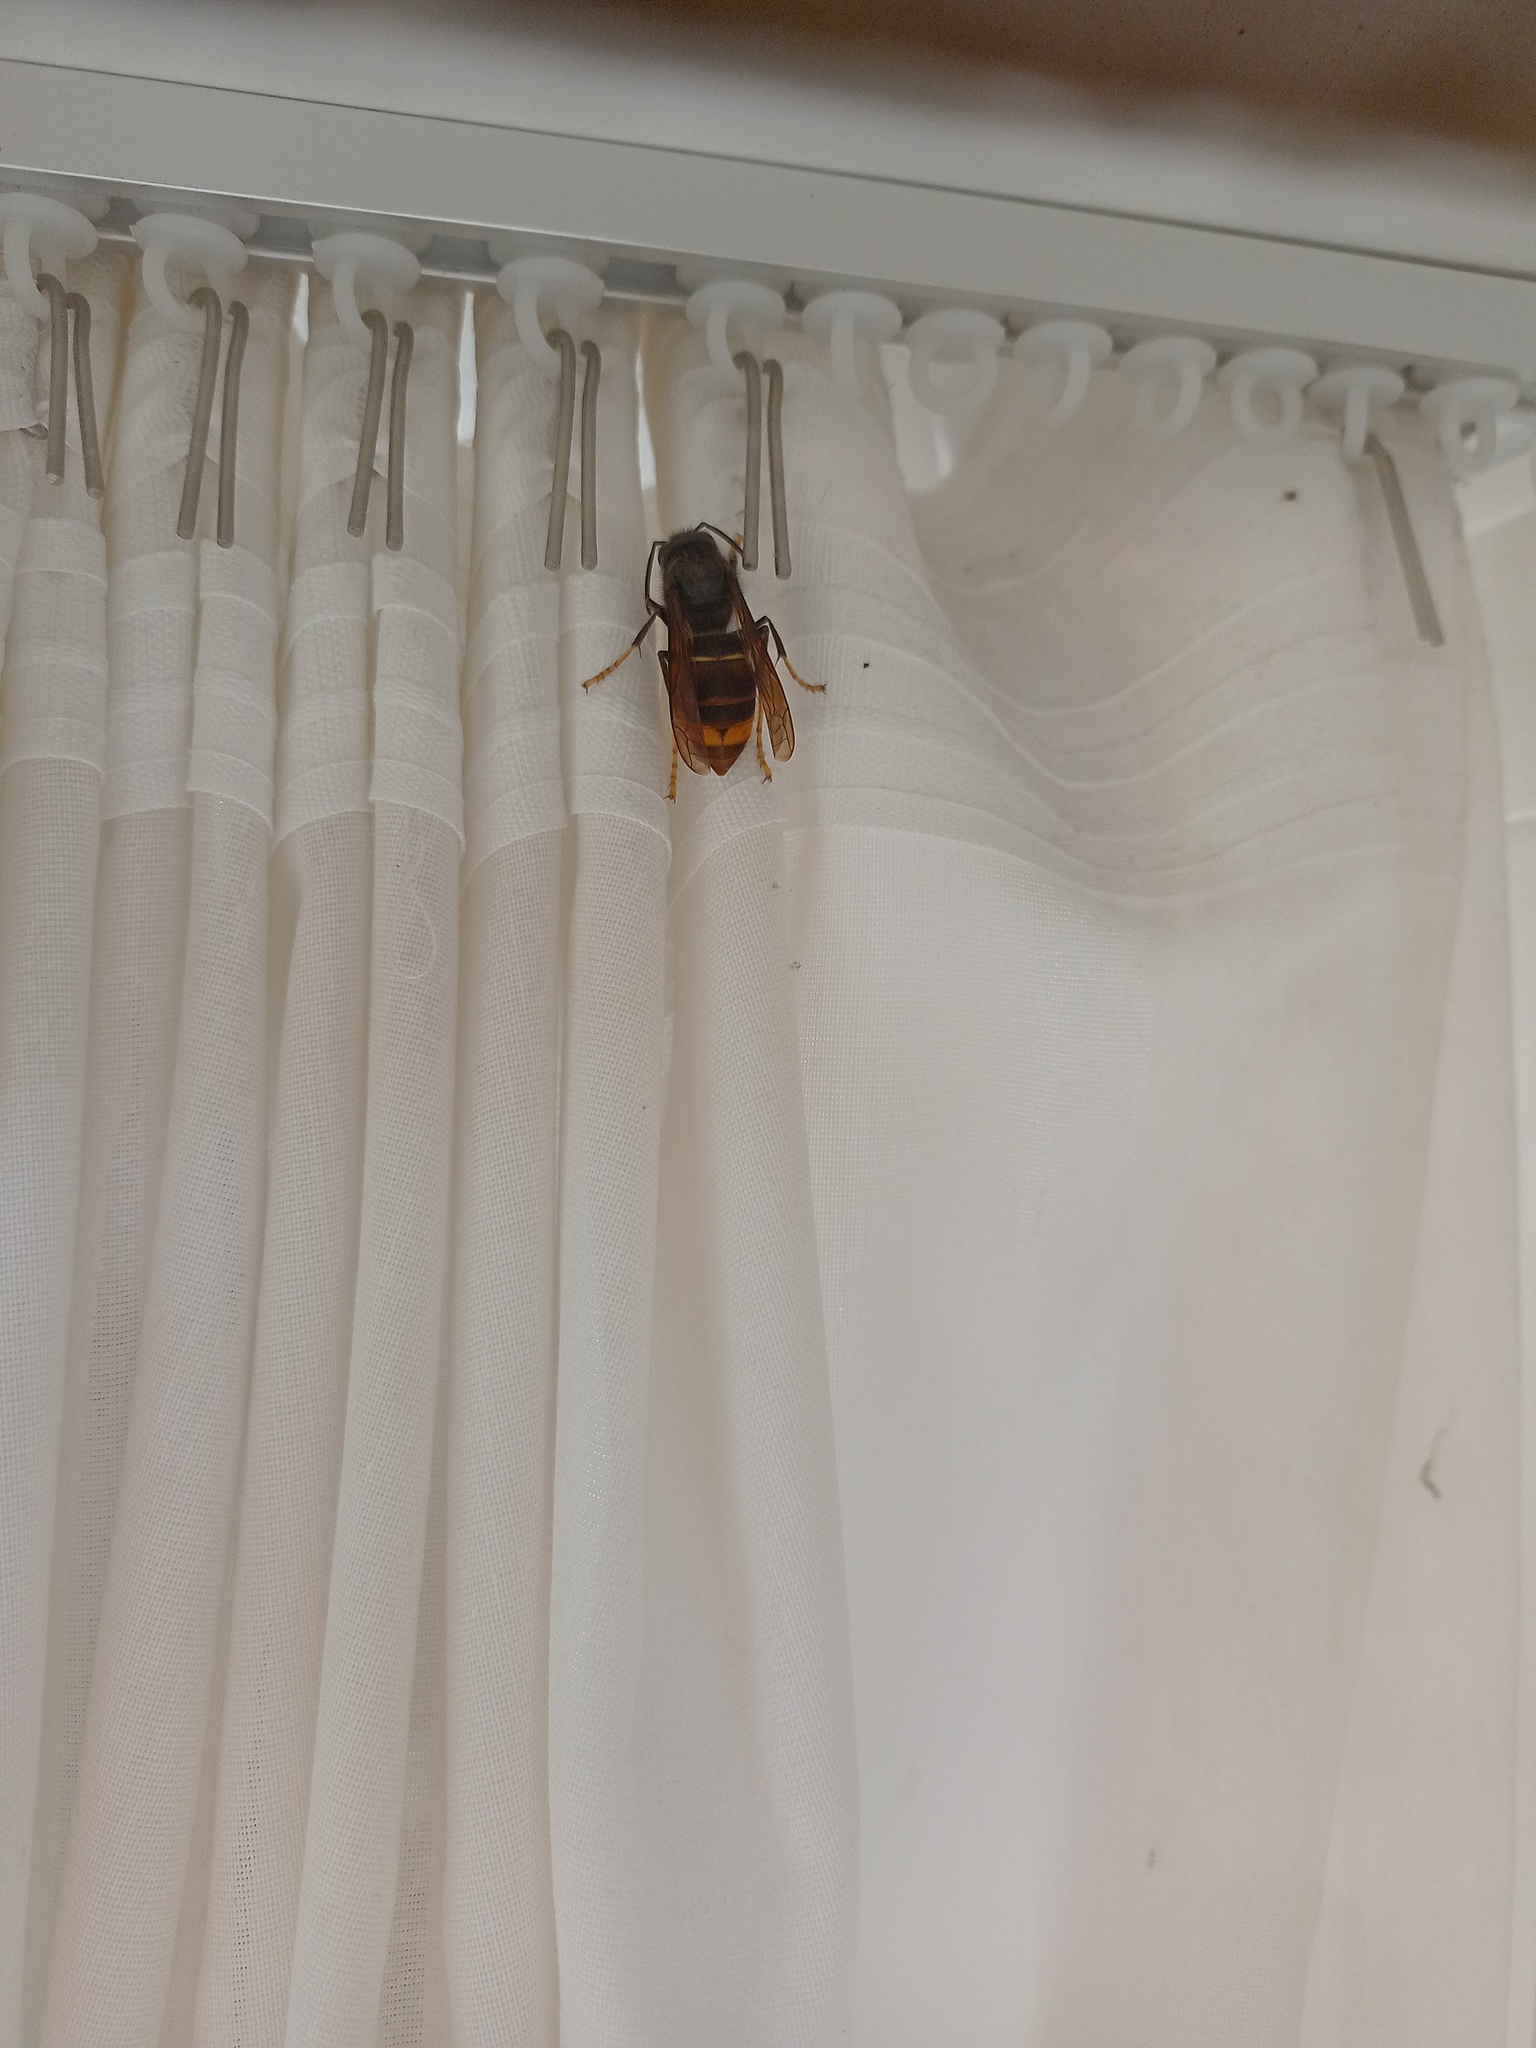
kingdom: Animalia
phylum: Arthropoda
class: Insecta
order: Hymenoptera
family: Vespidae
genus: Vespa
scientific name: Vespa velutina
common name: Asian hornet
